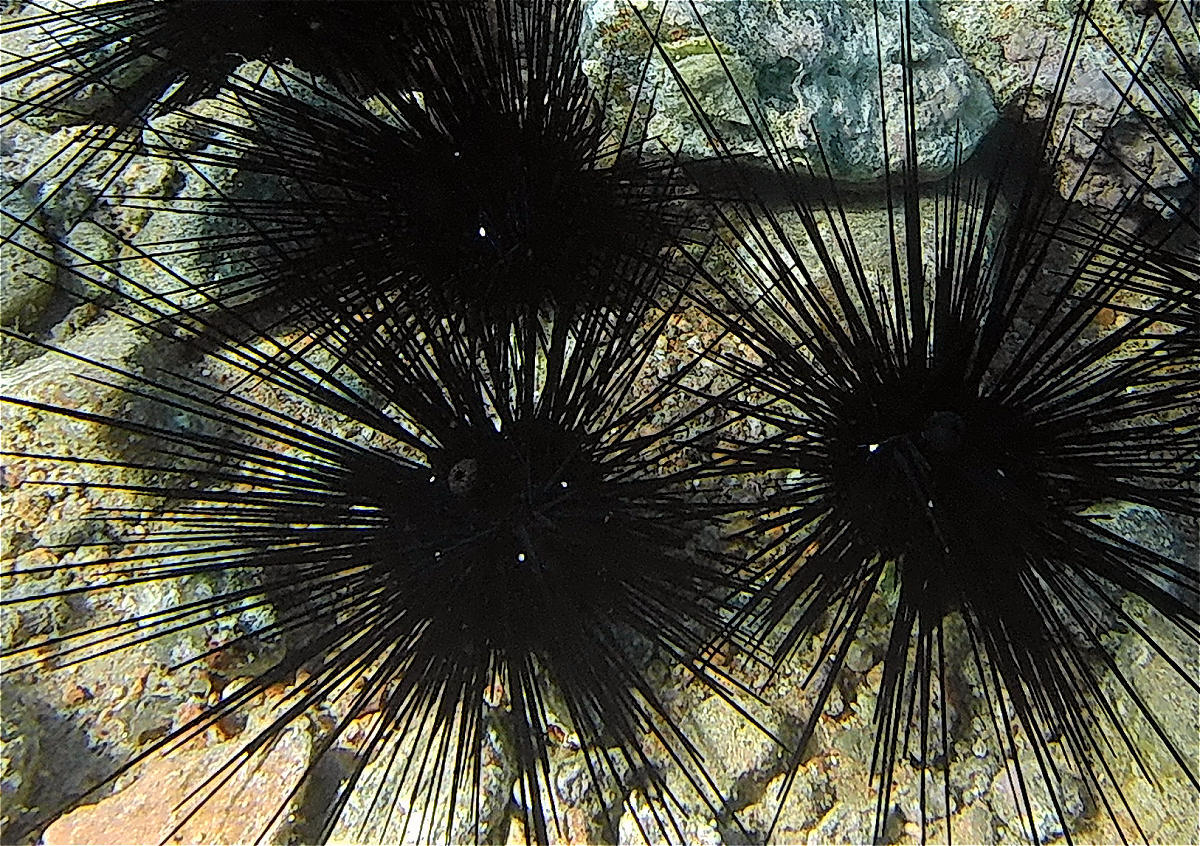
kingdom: Animalia
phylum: Echinodermata
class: Echinoidea
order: Diadematoida
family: Diadematidae
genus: Diadema
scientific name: Diadema setosum
